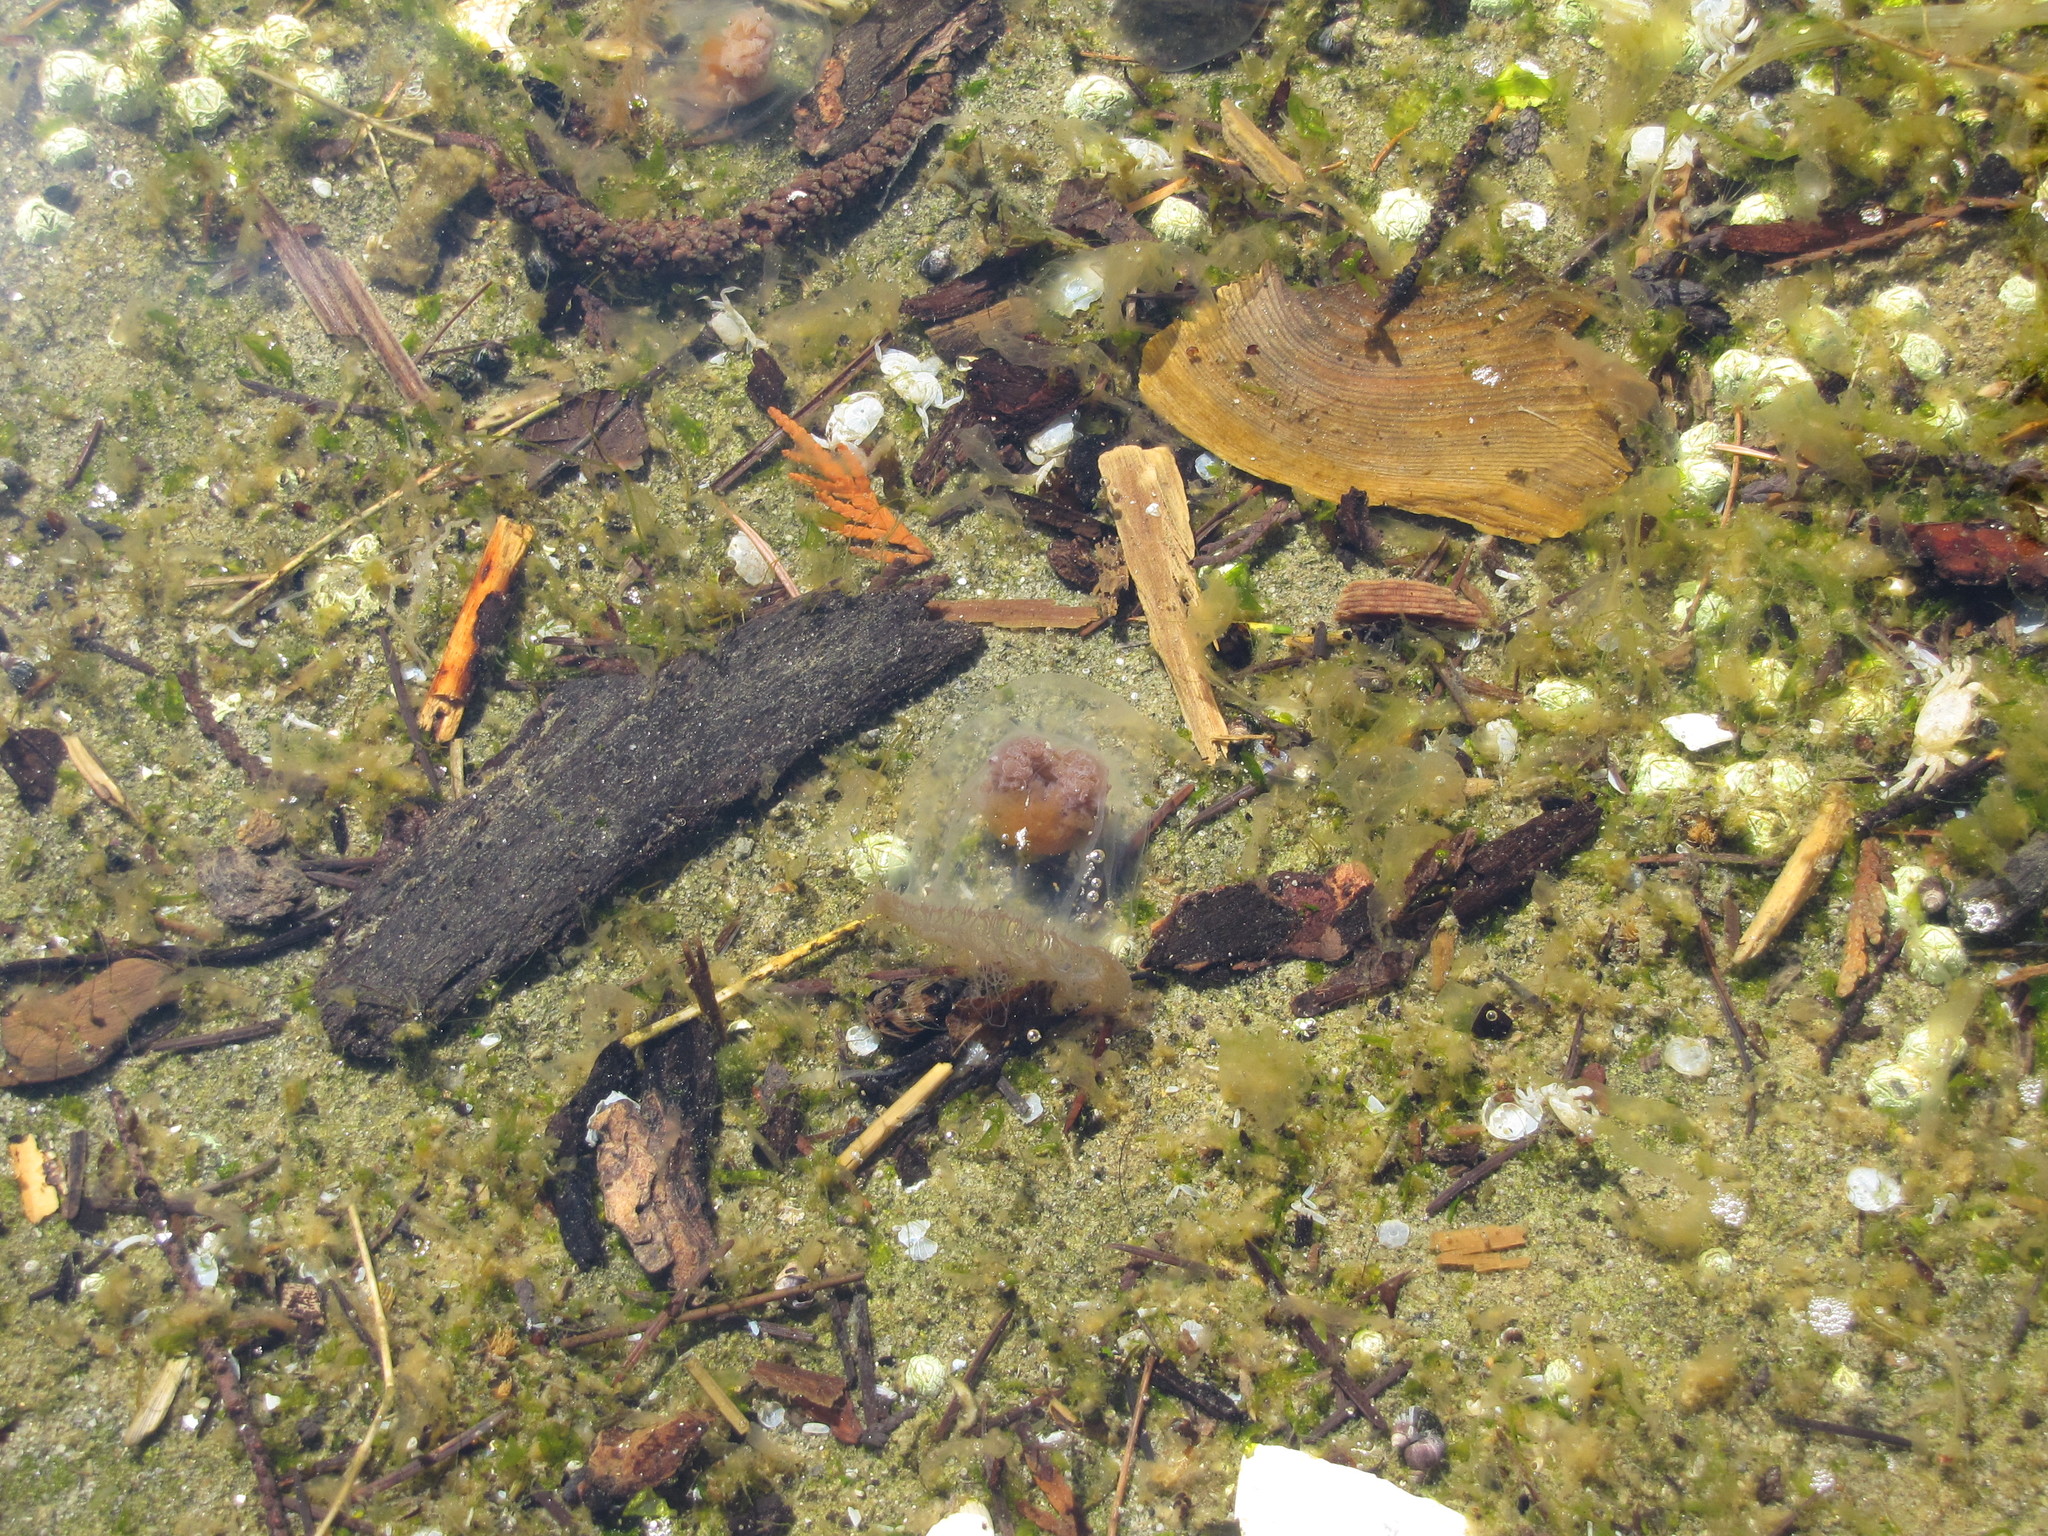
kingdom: Animalia
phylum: Cnidaria
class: Hydrozoa
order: Anthoathecata
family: Pandeidae
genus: Neoturris
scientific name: Neoturris breviconis
